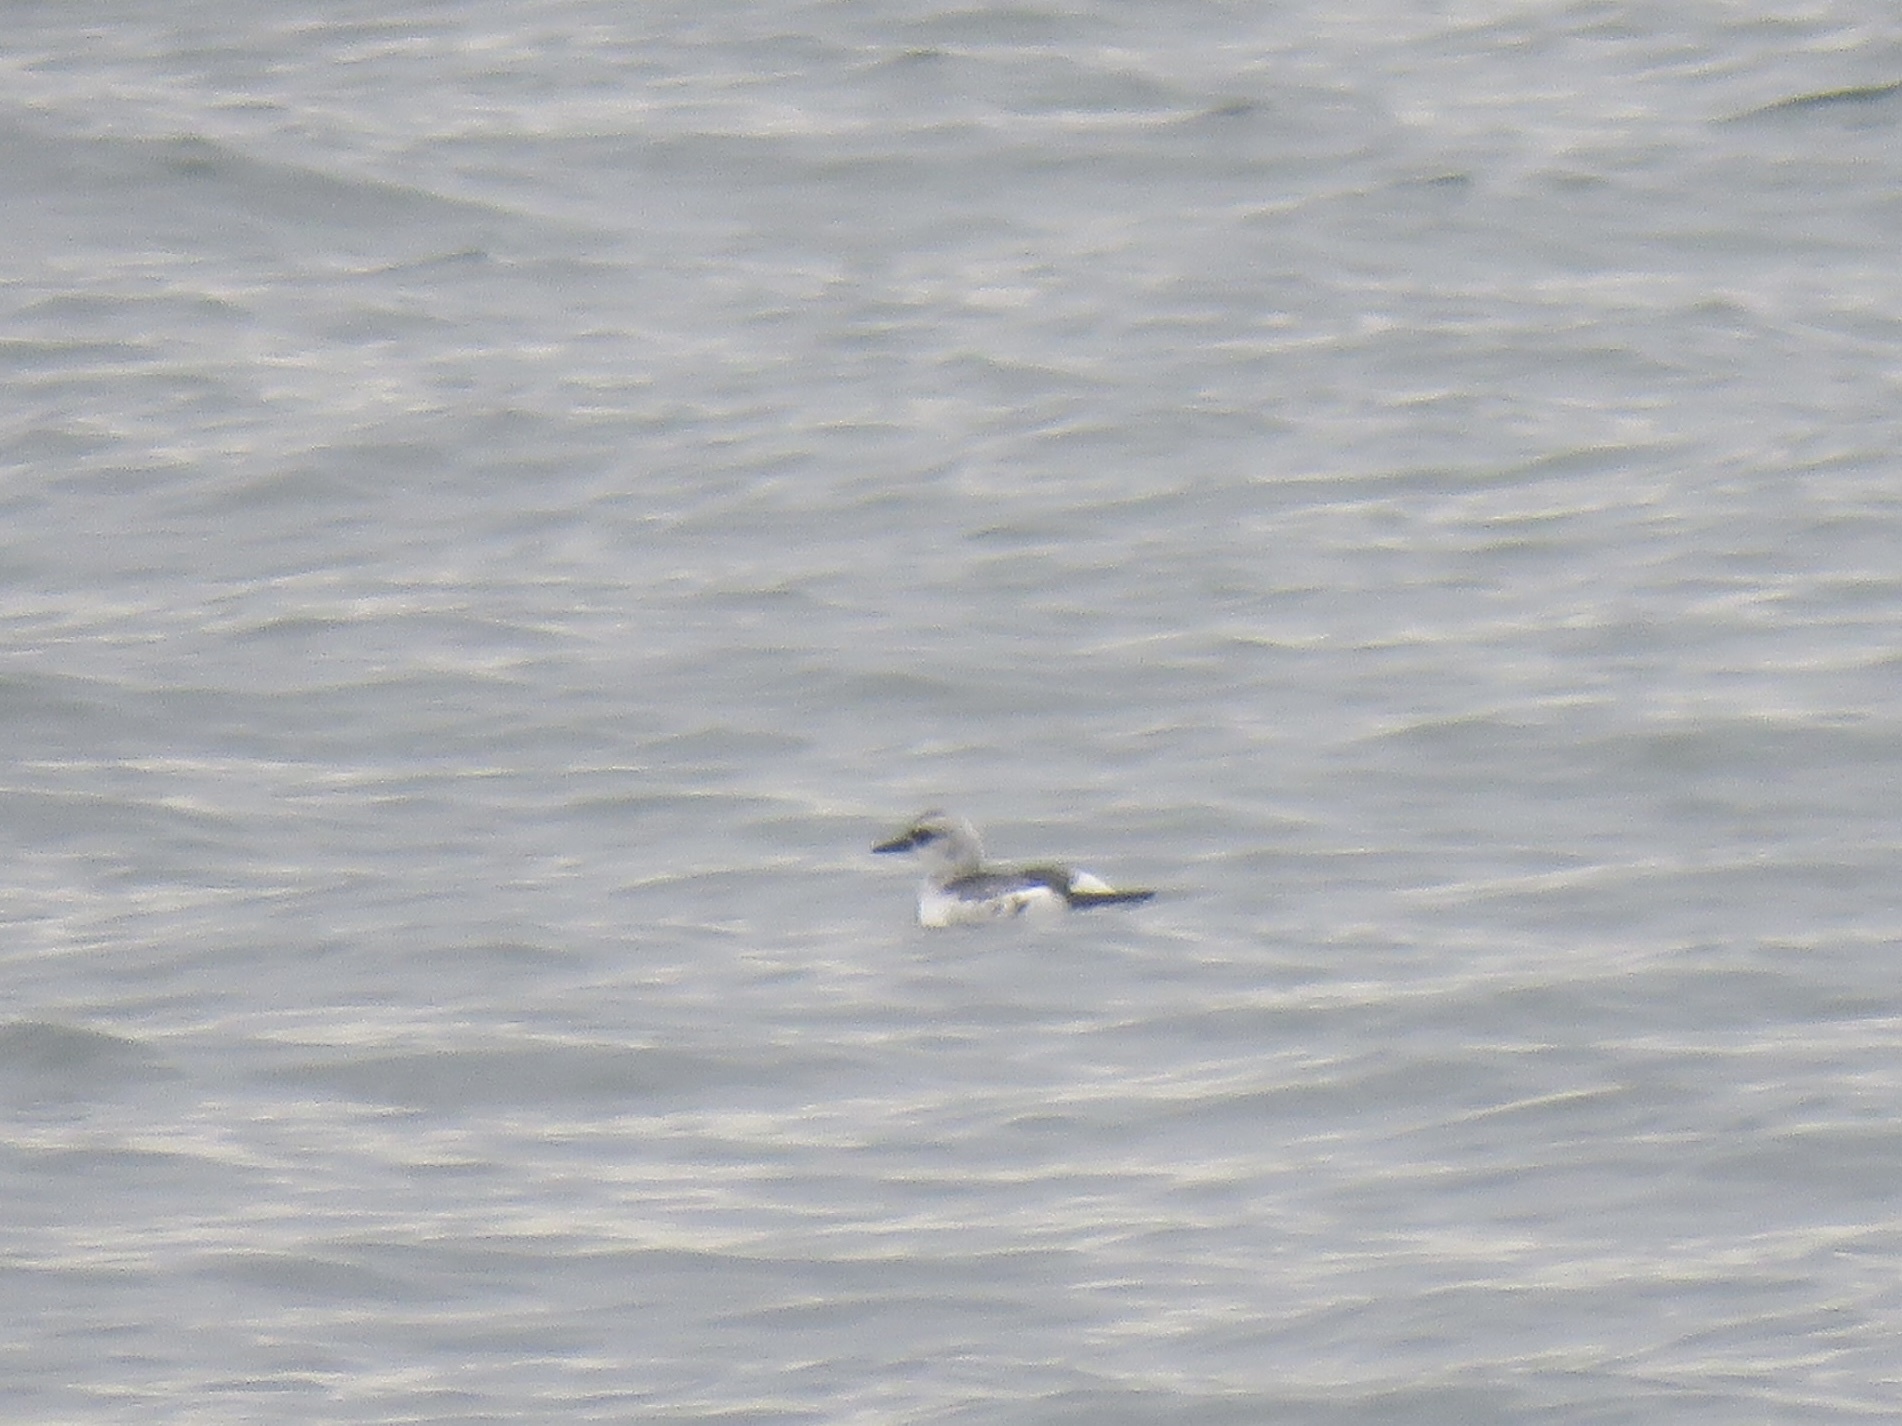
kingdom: Animalia
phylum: Chordata
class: Aves
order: Charadriiformes
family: Alcidae
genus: Cepphus
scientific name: Cepphus columba
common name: Pigeon guillemot
